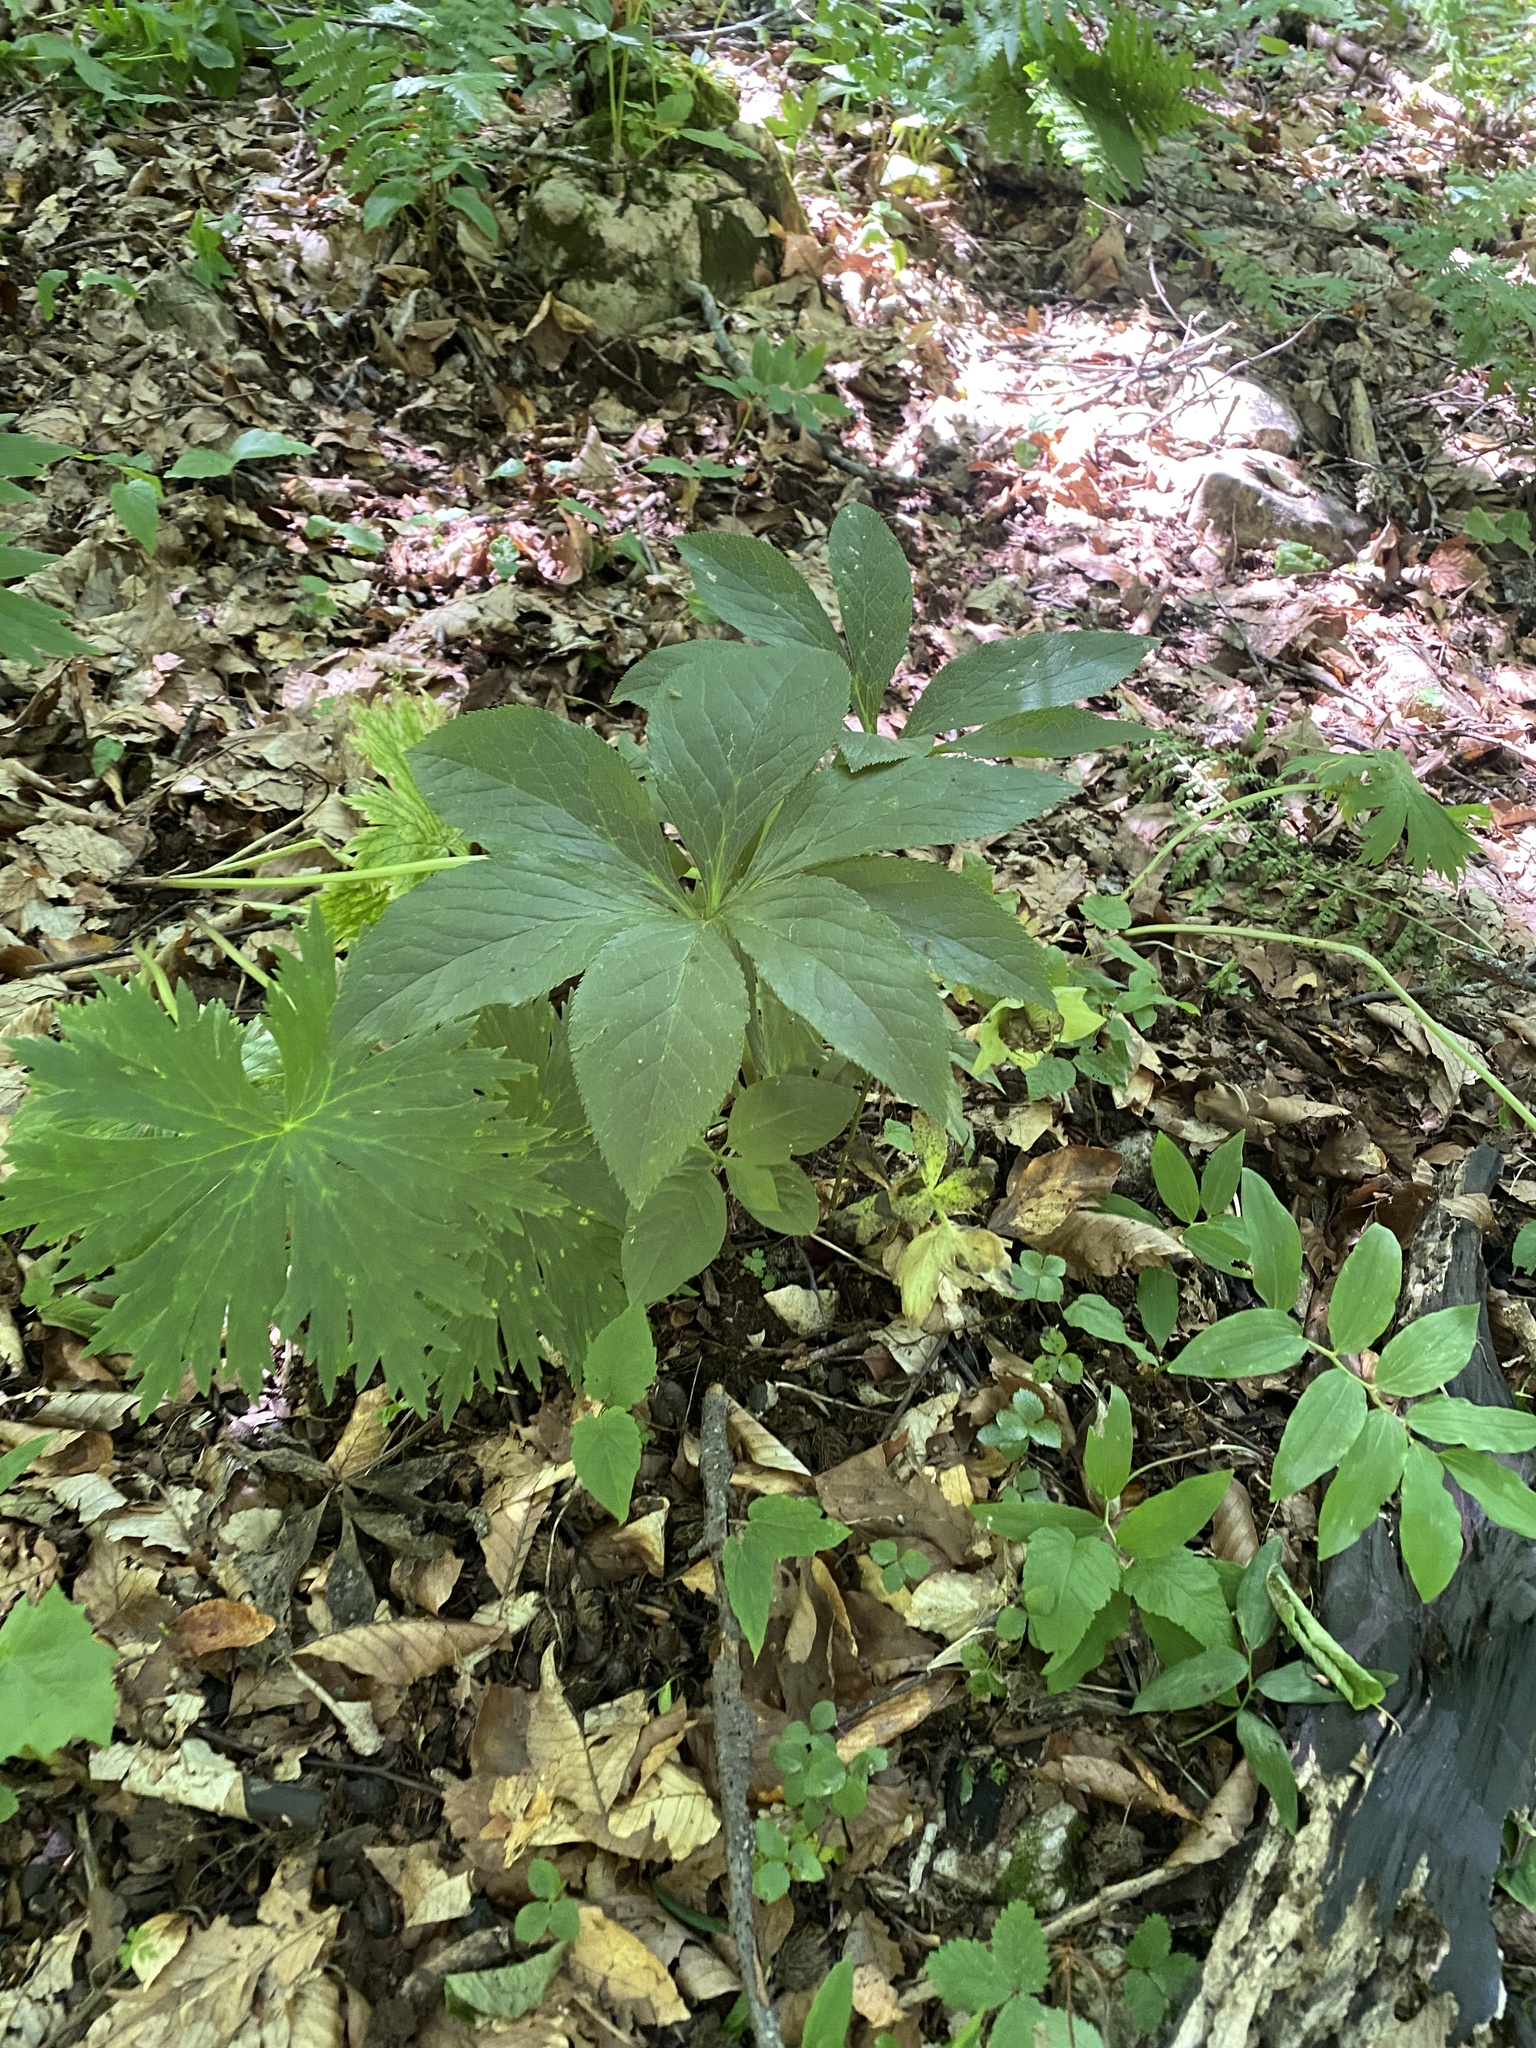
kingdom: Plantae
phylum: Tracheophyta
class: Magnoliopsida
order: Ranunculales
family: Ranunculaceae
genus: Helleborus
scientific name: Helleborus orientalis
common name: Lenten-rose
